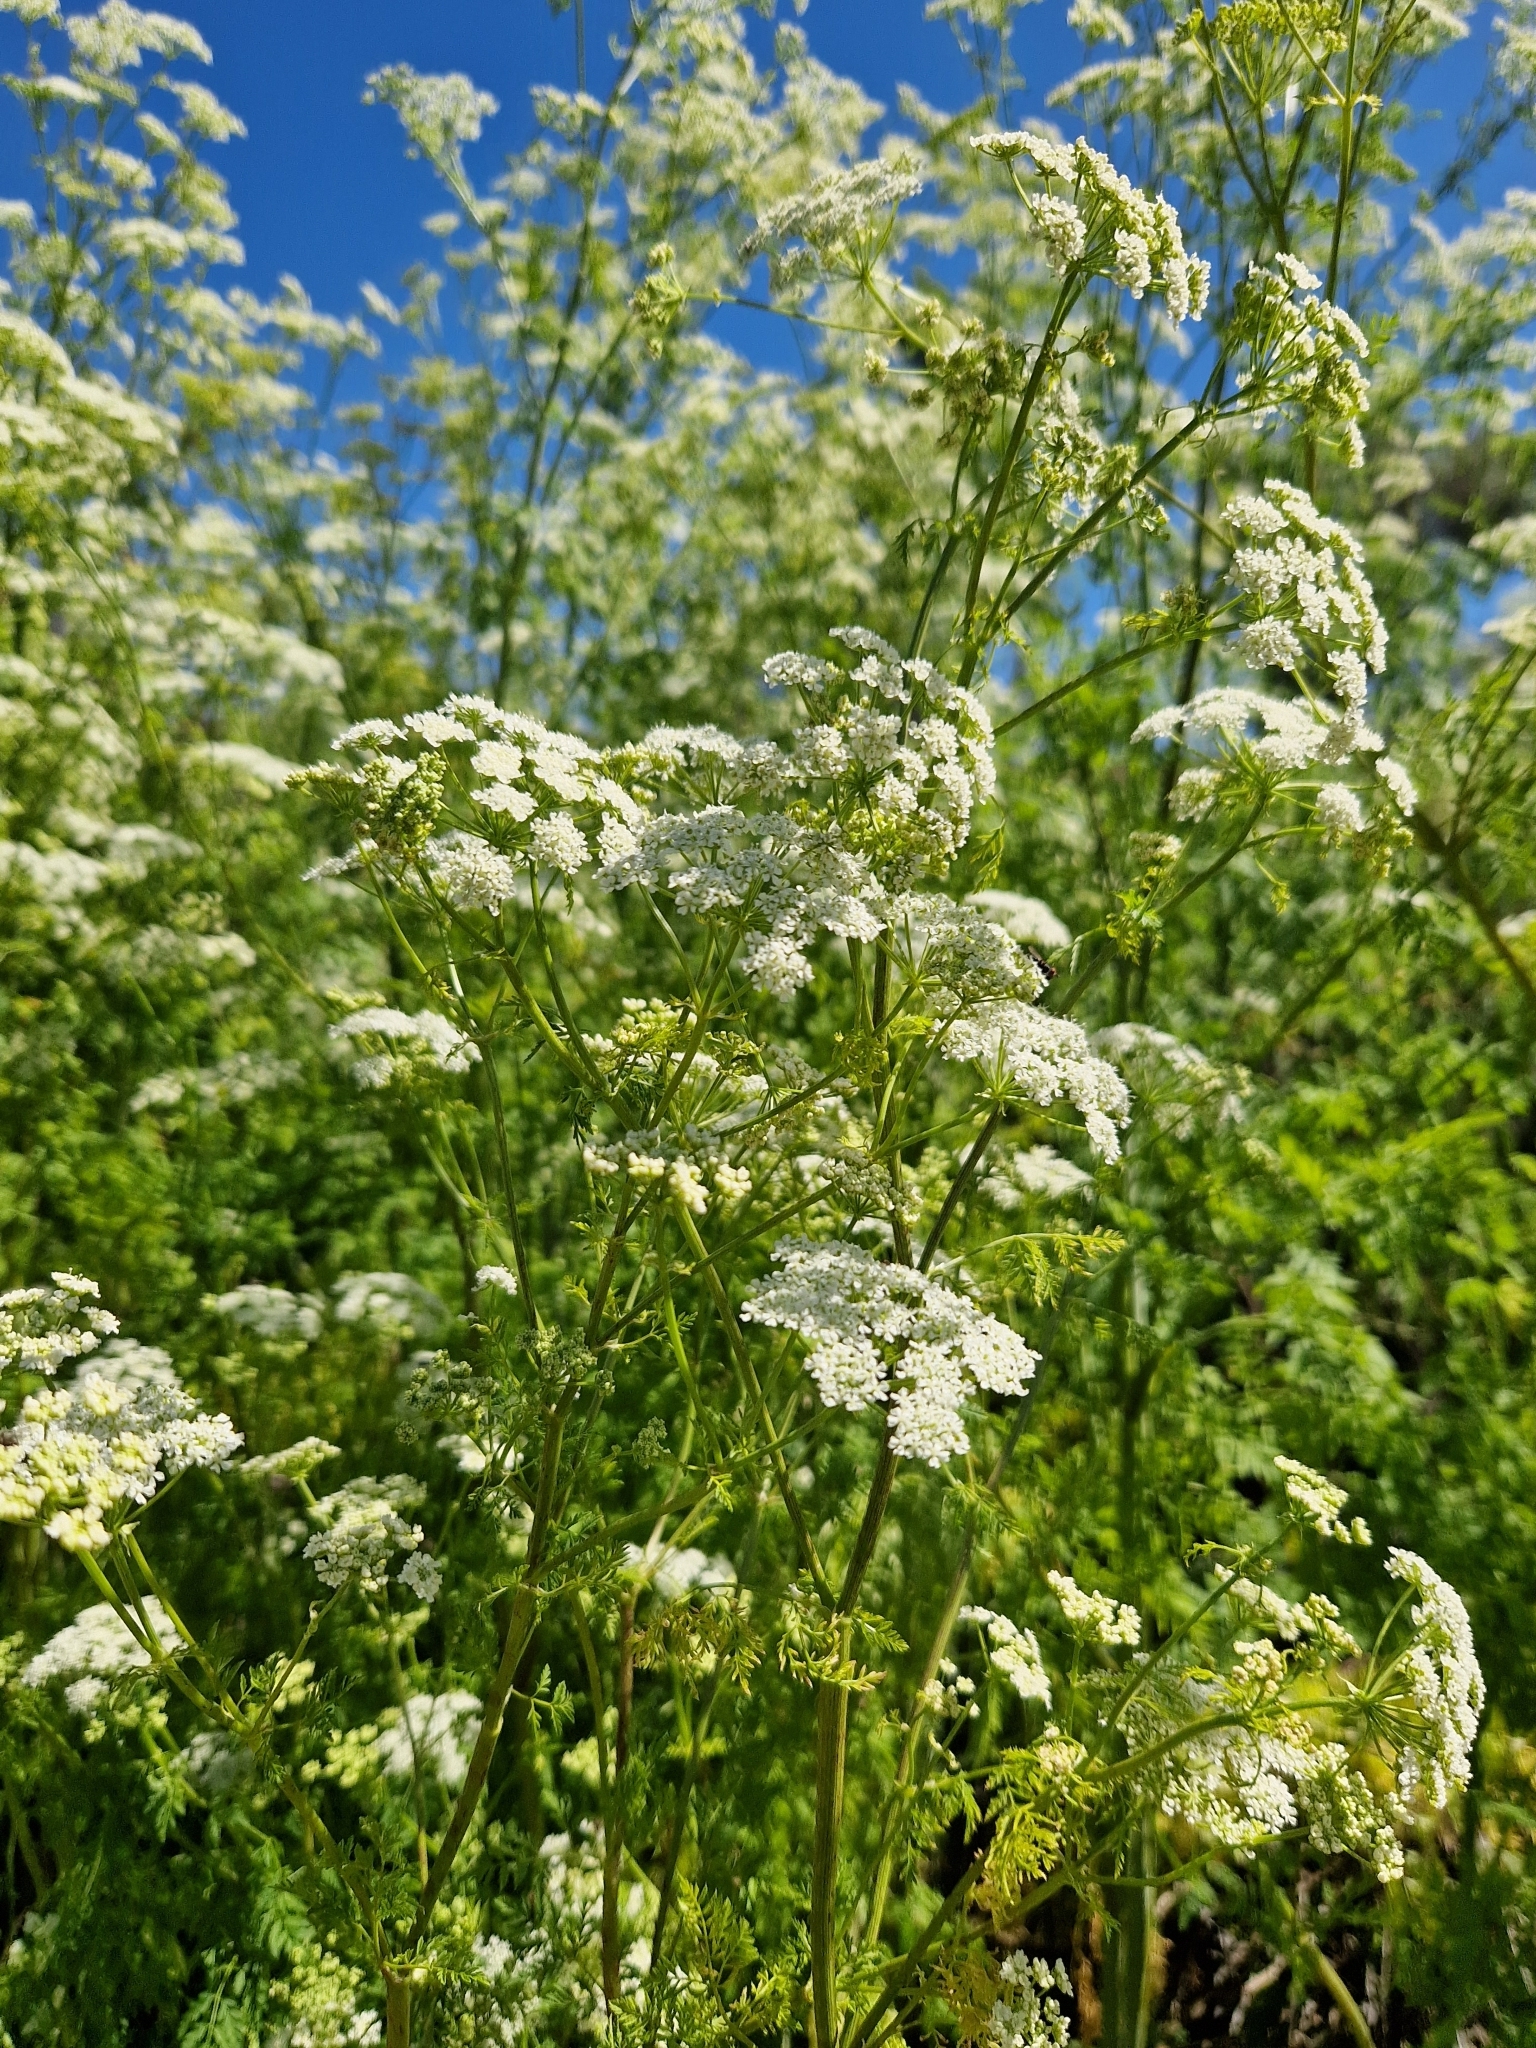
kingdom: Plantae
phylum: Tracheophyta
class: Magnoliopsida
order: Apiales
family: Apiaceae
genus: Conium
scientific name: Conium maculatum
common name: Hemlock
